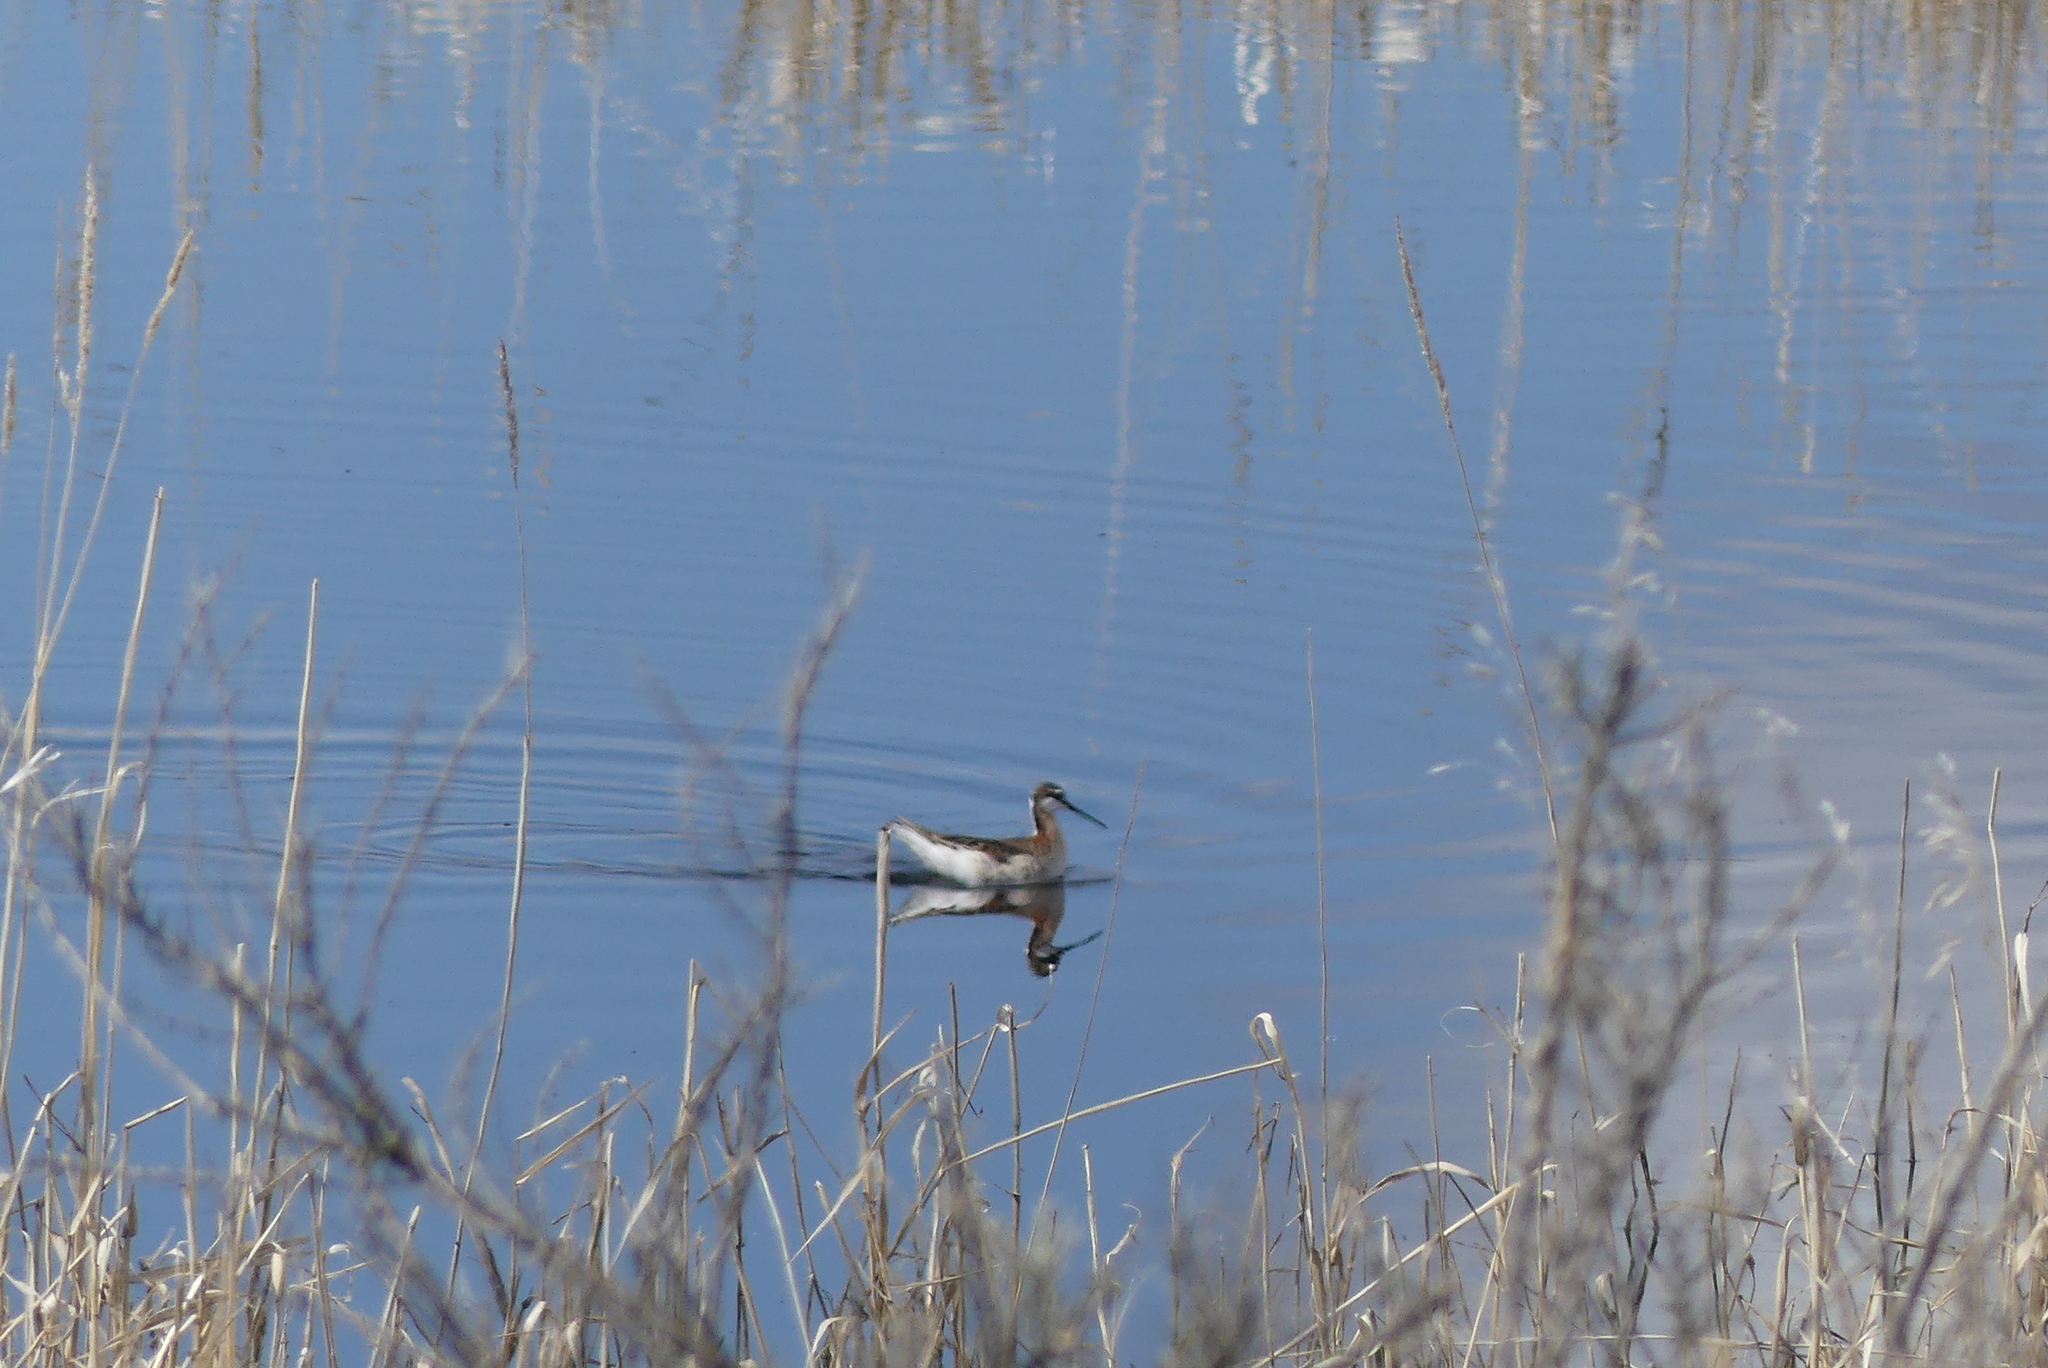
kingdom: Animalia
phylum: Chordata
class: Aves
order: Charadriiformes
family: Scolopacidae
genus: Phalaropus
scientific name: Phalaropus tricolor
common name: Wilson's phalarope
